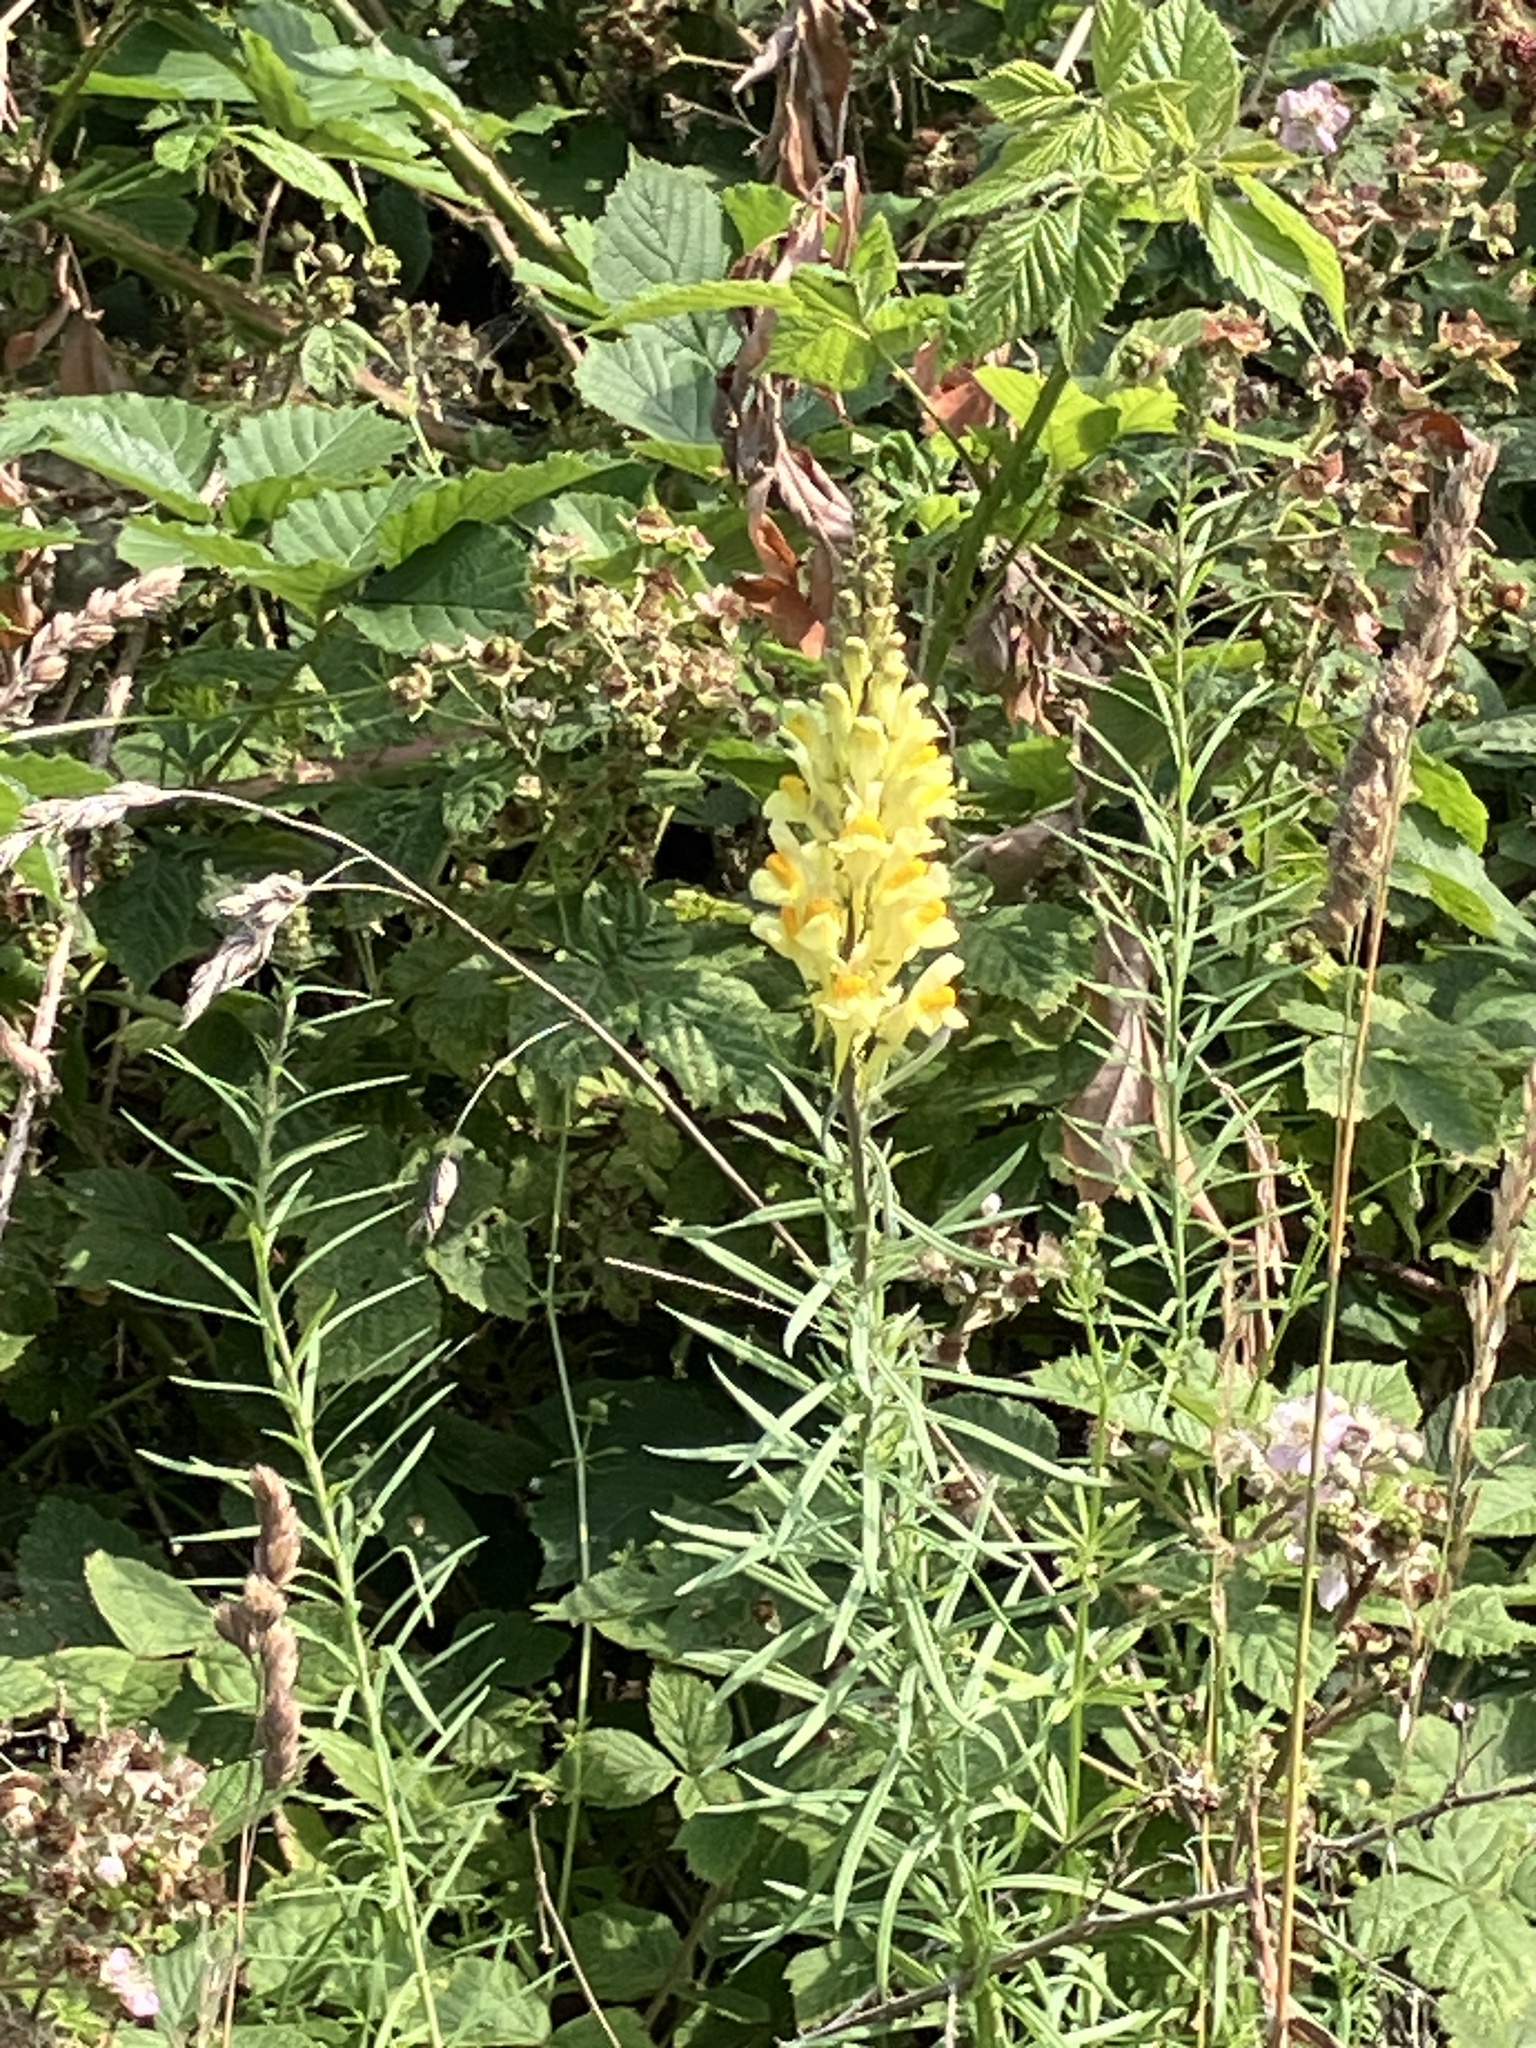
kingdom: Plantae
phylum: Tracheophyta
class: Magnoliopsida
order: Lamiales
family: Plantaginaceae
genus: Linaria
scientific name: Linaria vulgaris
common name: Butter and eggs
